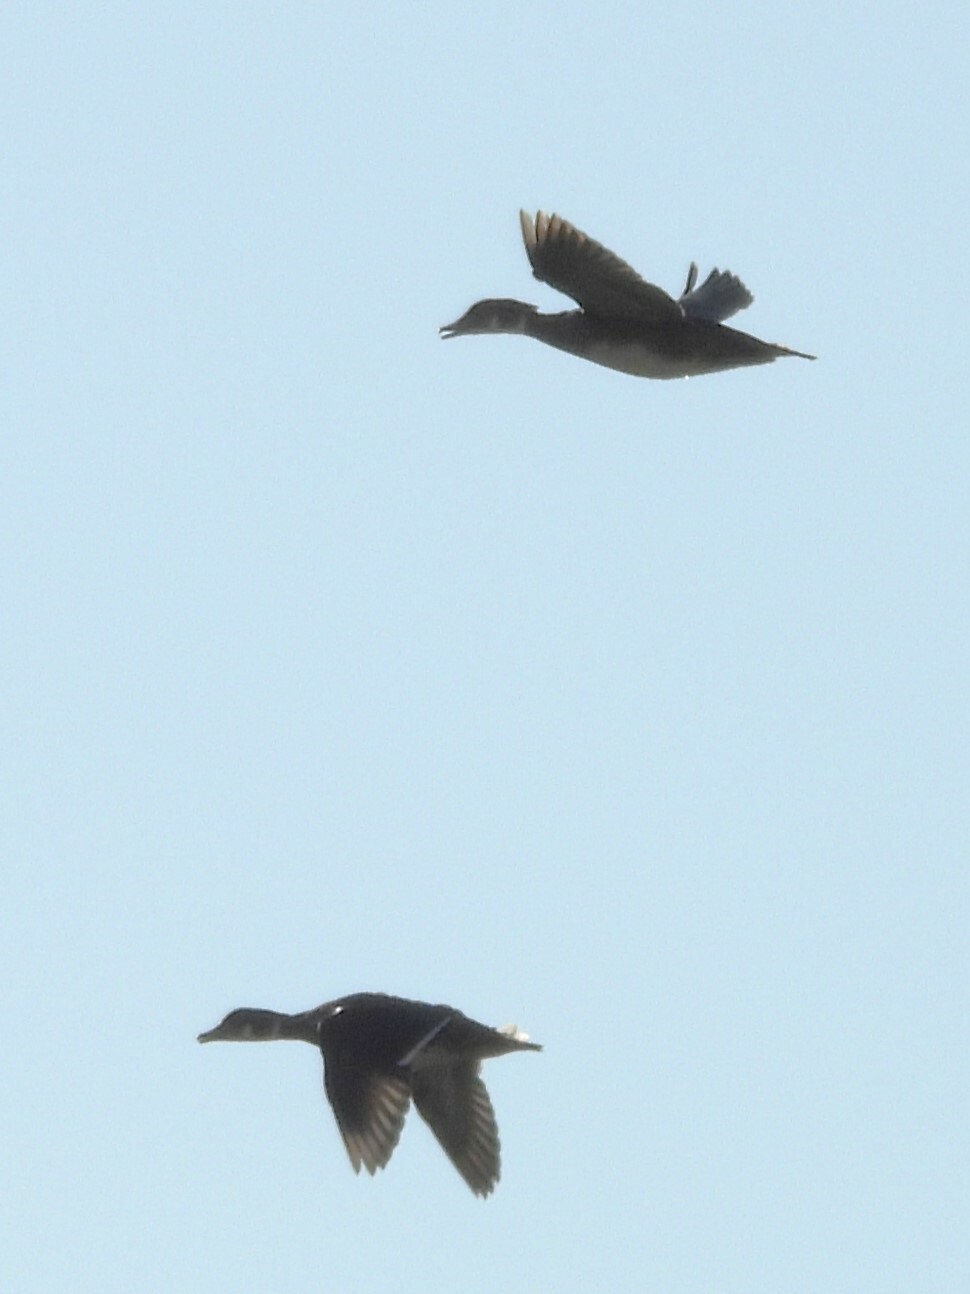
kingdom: Animalia
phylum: Chordata
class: Aves
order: Anseriformes
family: Anatidae
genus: Aix
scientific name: Aix sponsa
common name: Wood duck
